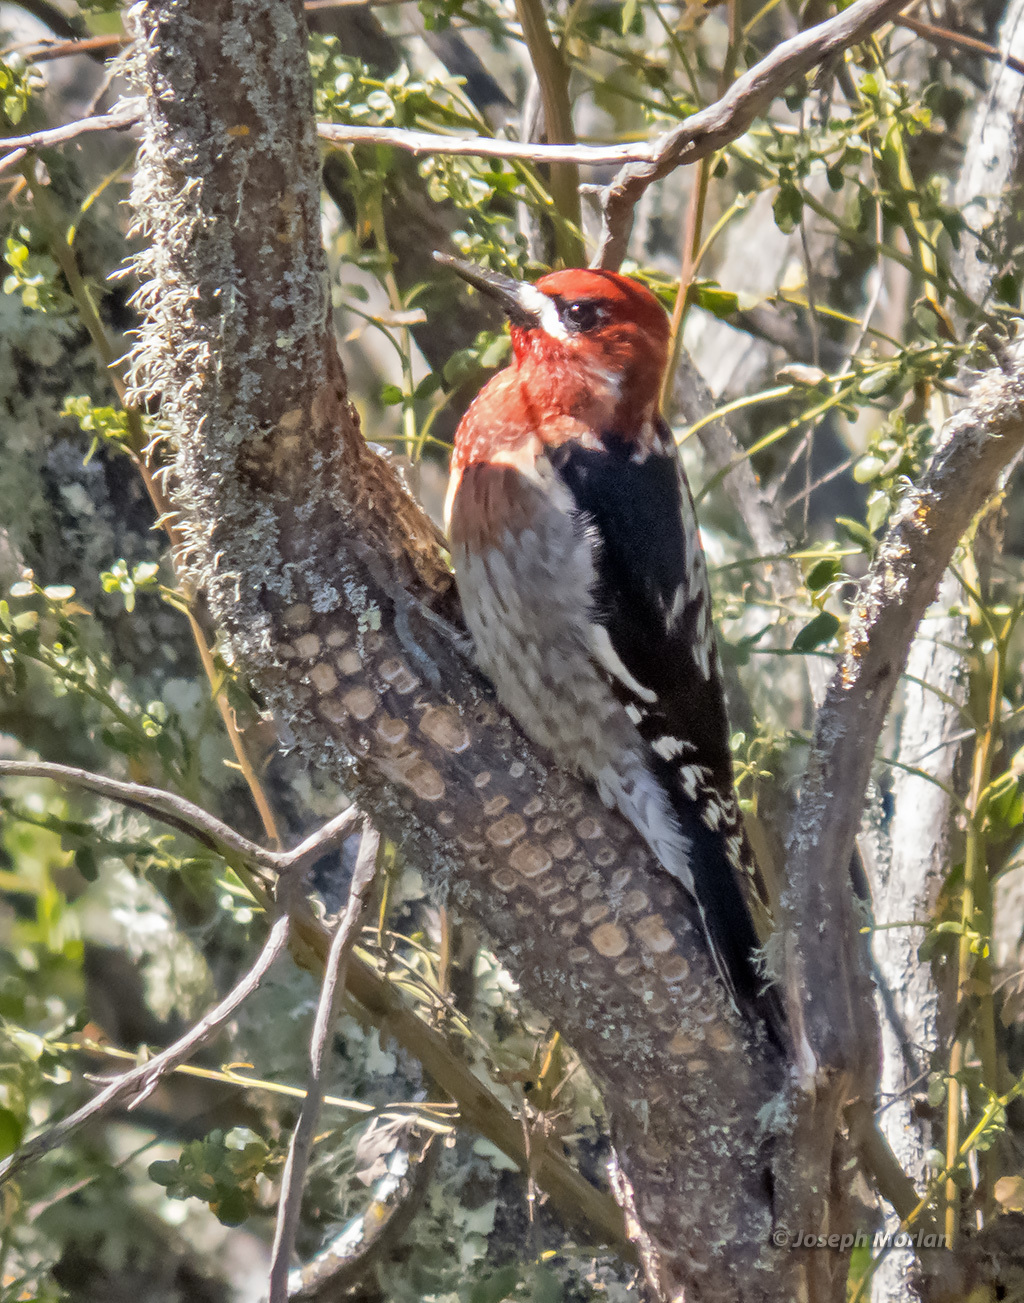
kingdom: Animalia
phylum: Chordata
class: Aves
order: Piciformes
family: Picidae
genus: Sphyrapicus
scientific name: Sphyrapicus ruber
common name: Red-breasted sapsucker
